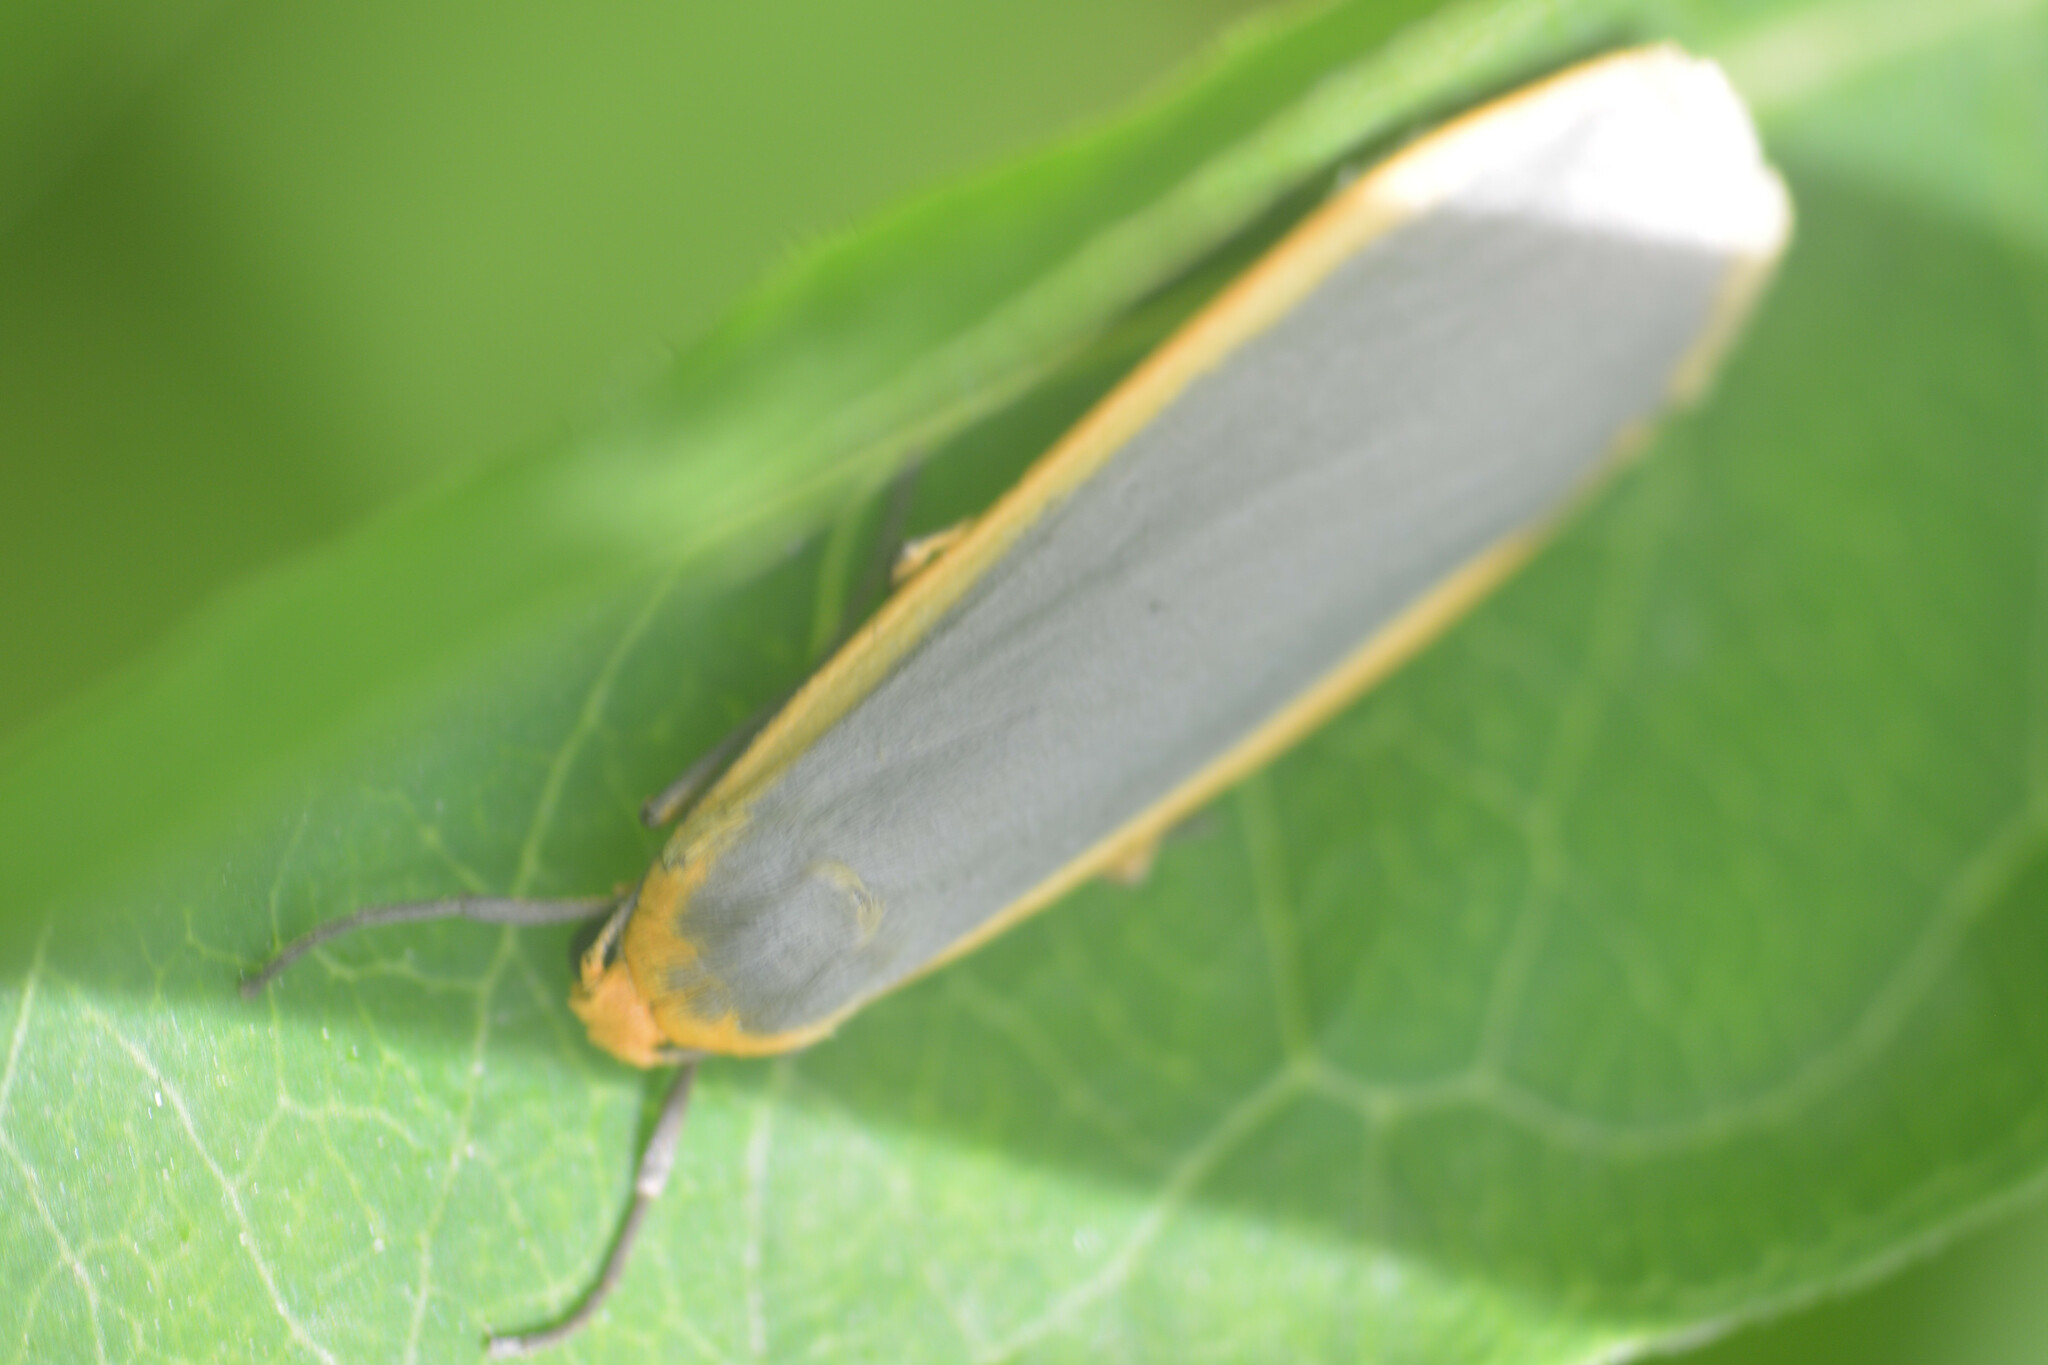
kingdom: Animalia
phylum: Arthropoda
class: Insecta
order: Lepidoptera
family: Erebidae
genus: Nyea
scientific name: Nyea lurideola
